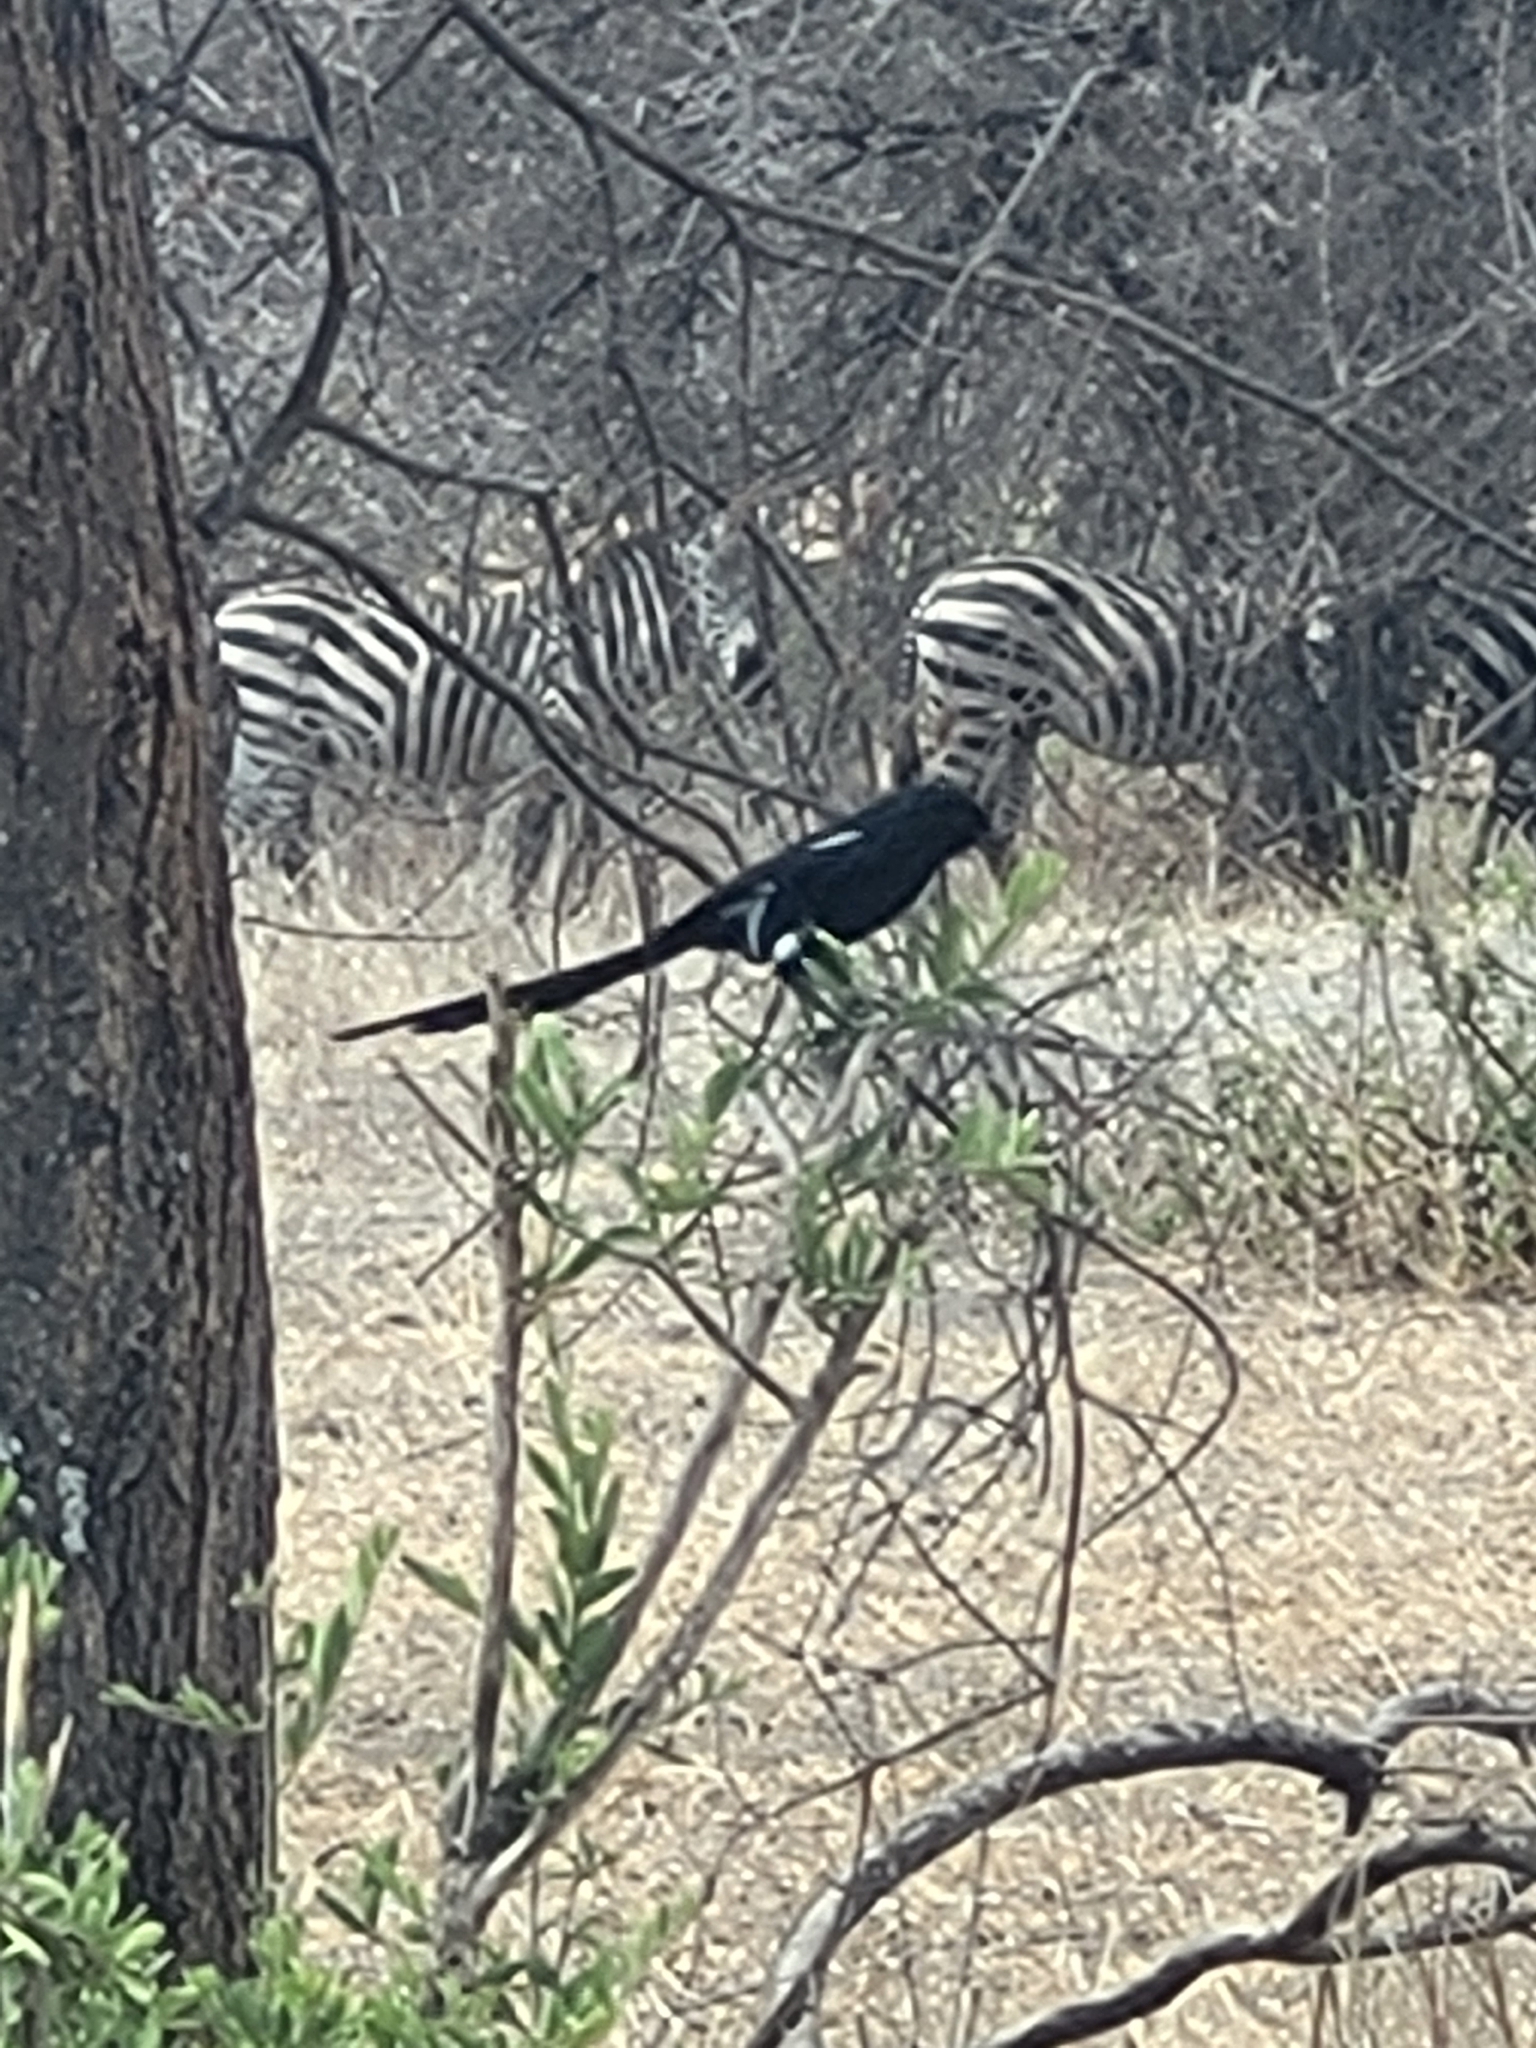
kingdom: Animalia
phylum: Chordata
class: Aves
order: Passeriformes
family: Laniidae
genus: Urolestes
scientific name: Urolestes melanoleucus
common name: Magpie shrike
